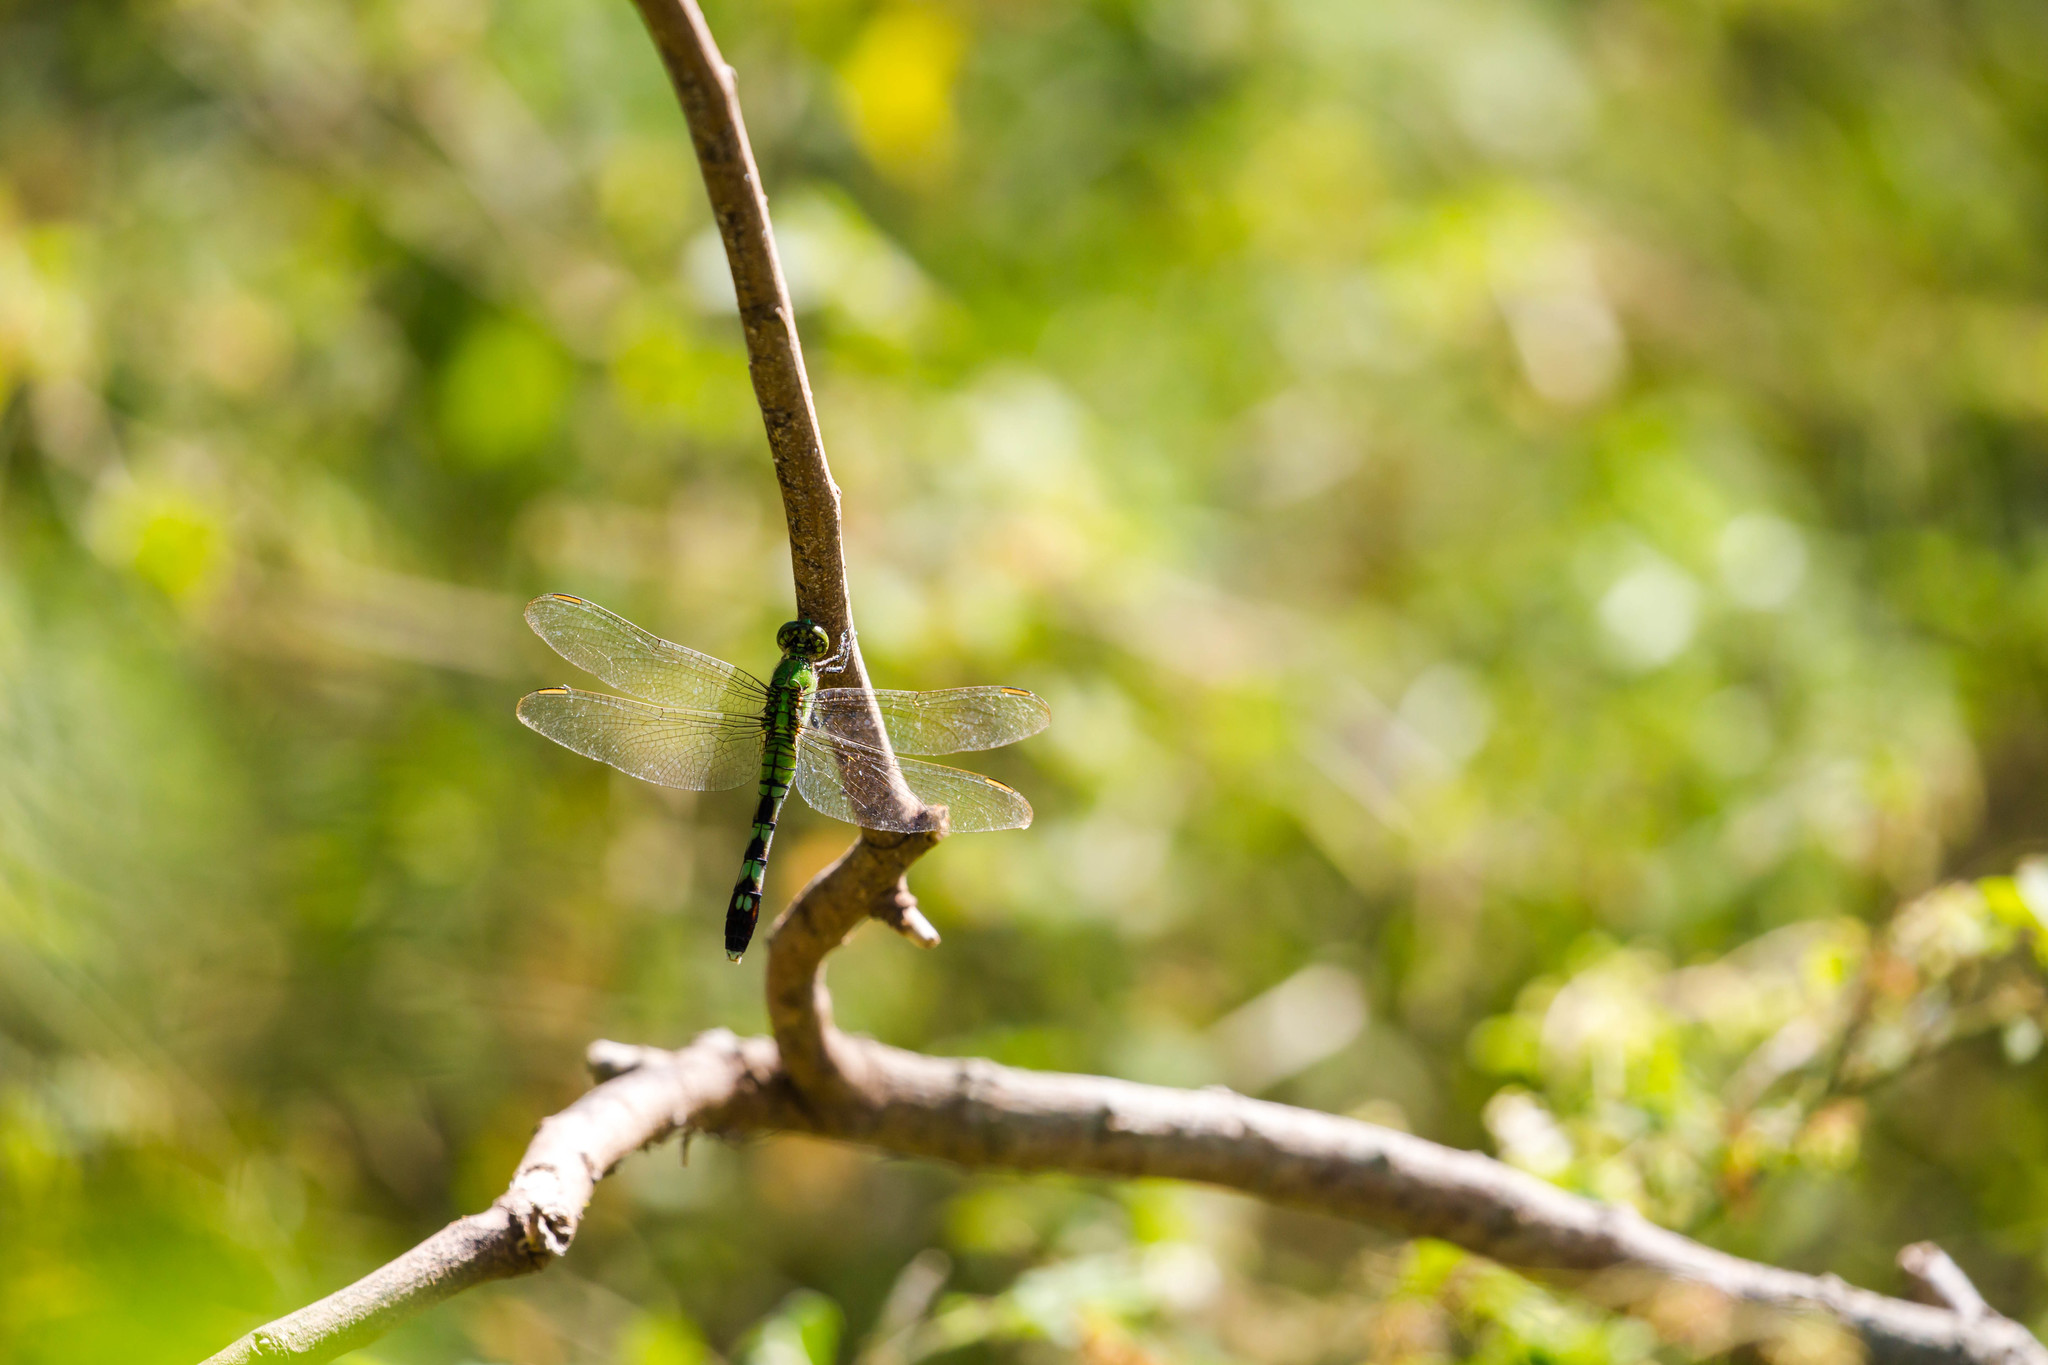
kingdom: Animalia
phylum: Arthropoda
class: Insecta
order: Odonata
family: Libellulidae
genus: Erythemis
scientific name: Erythemis simplicicollis
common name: Eastern pondhawk
